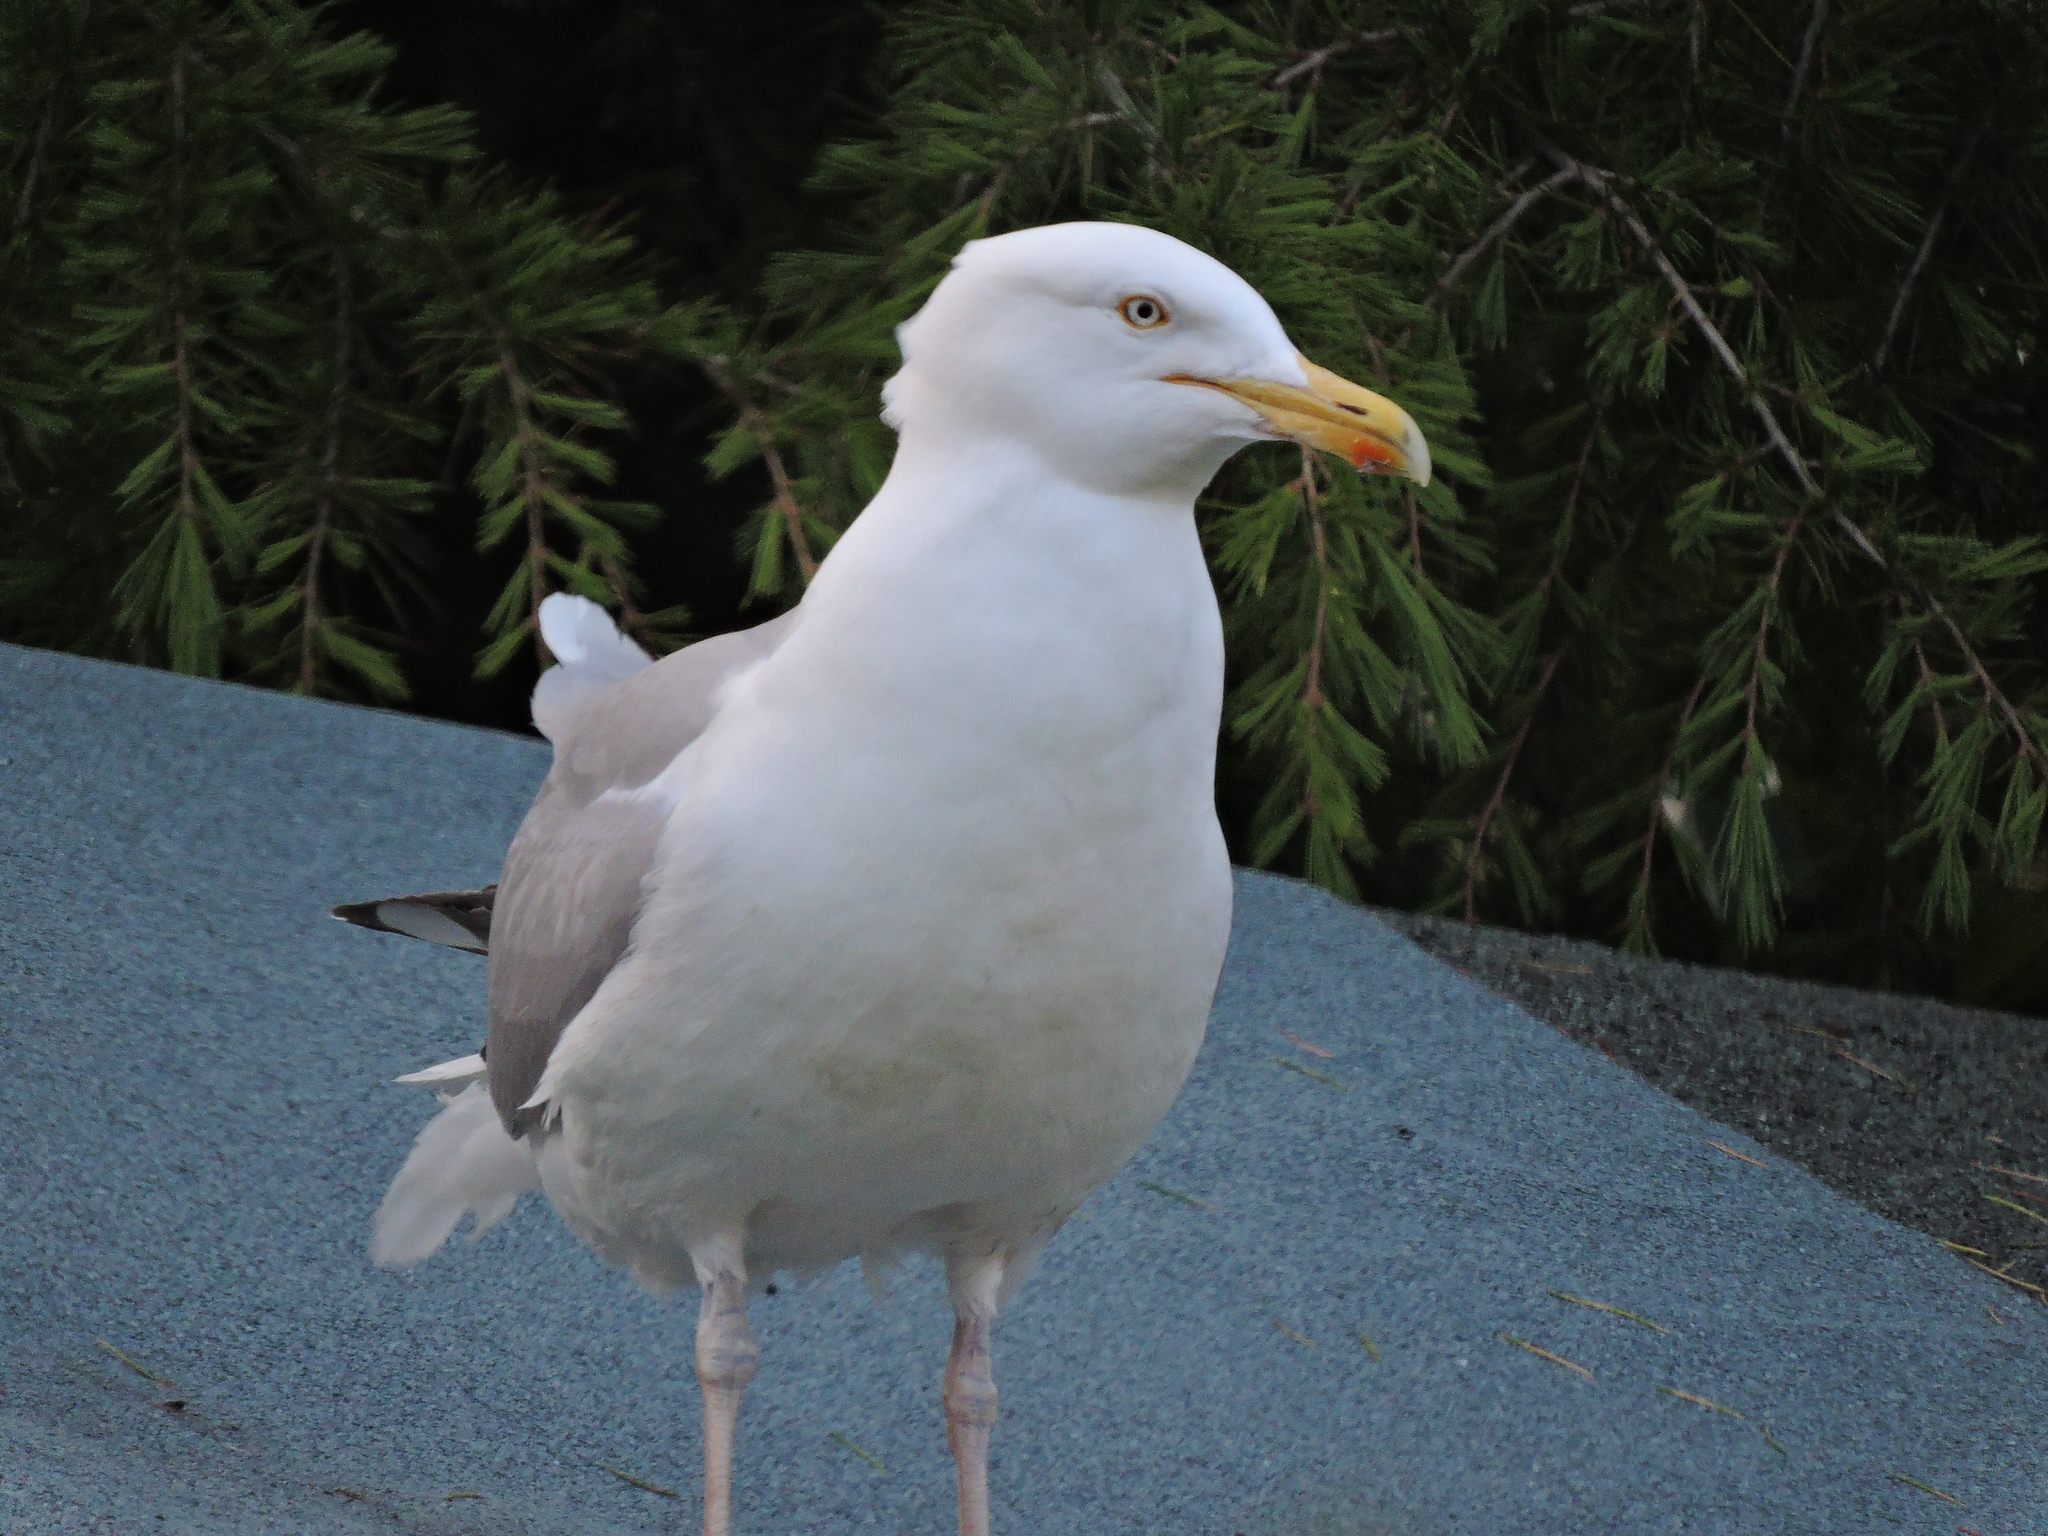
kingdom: Animalia
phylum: Chordata
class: Aves
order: Charadriiformes
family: Laridae
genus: Larus
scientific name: Larus argentatus
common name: Herring gull
